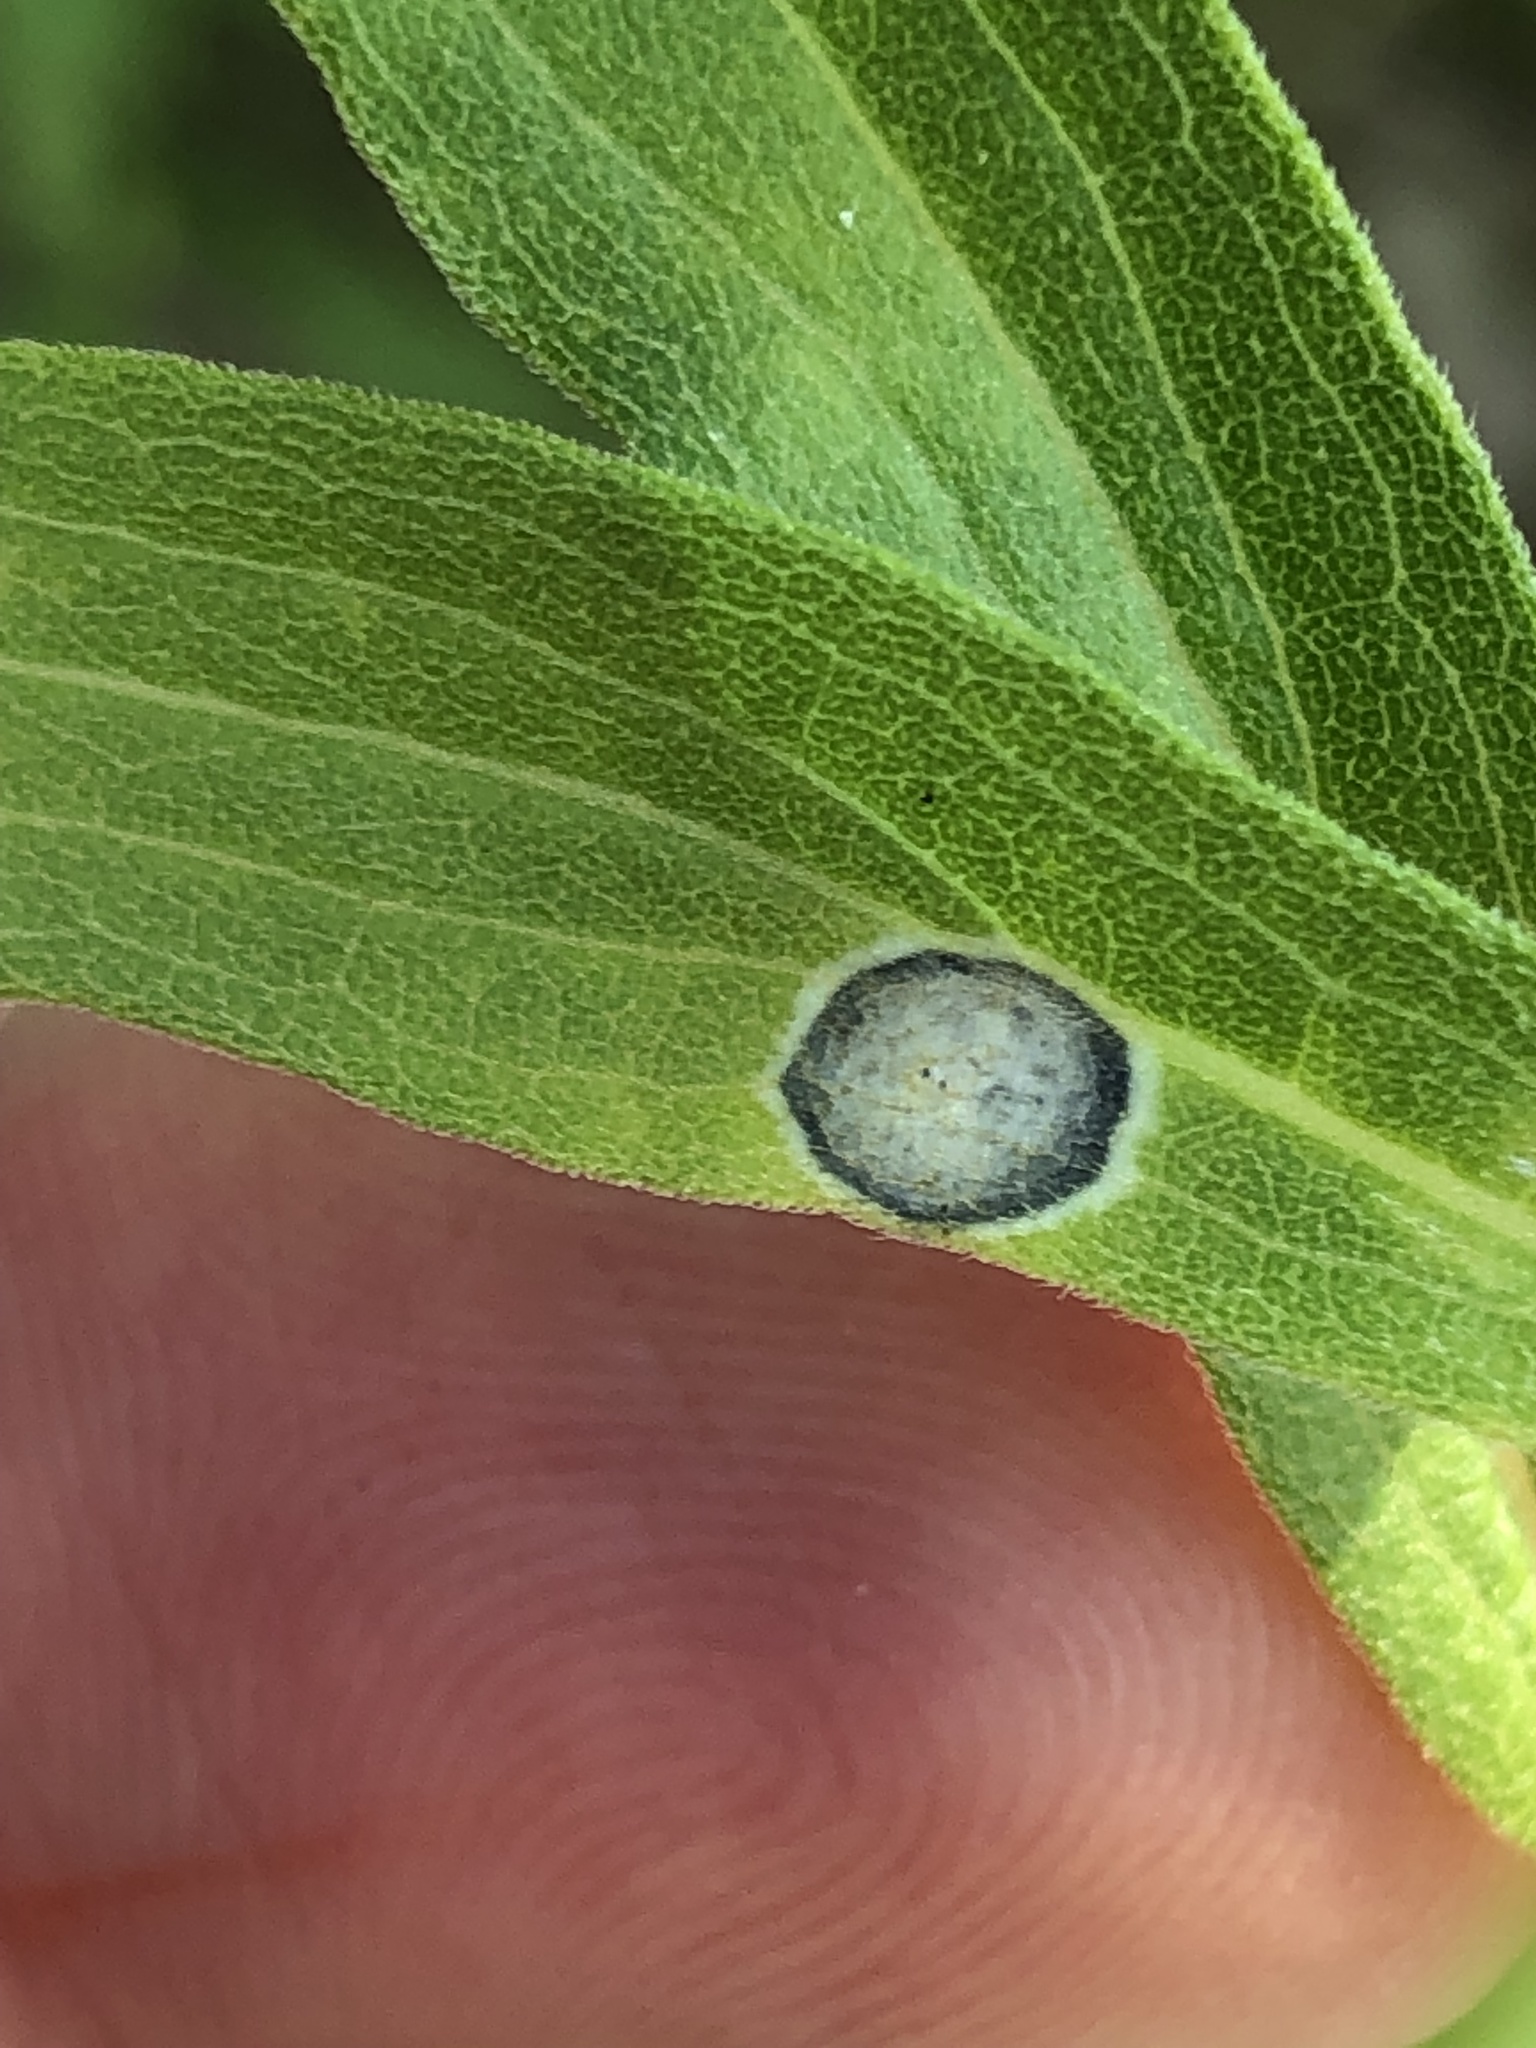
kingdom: Animalia
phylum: Arthropoda
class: Insecta
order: Diptera
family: Cecidomyiidae
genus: Asteromyia
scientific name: Asteromyia carbonifera
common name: Carbonifera goldenrod gall midge
